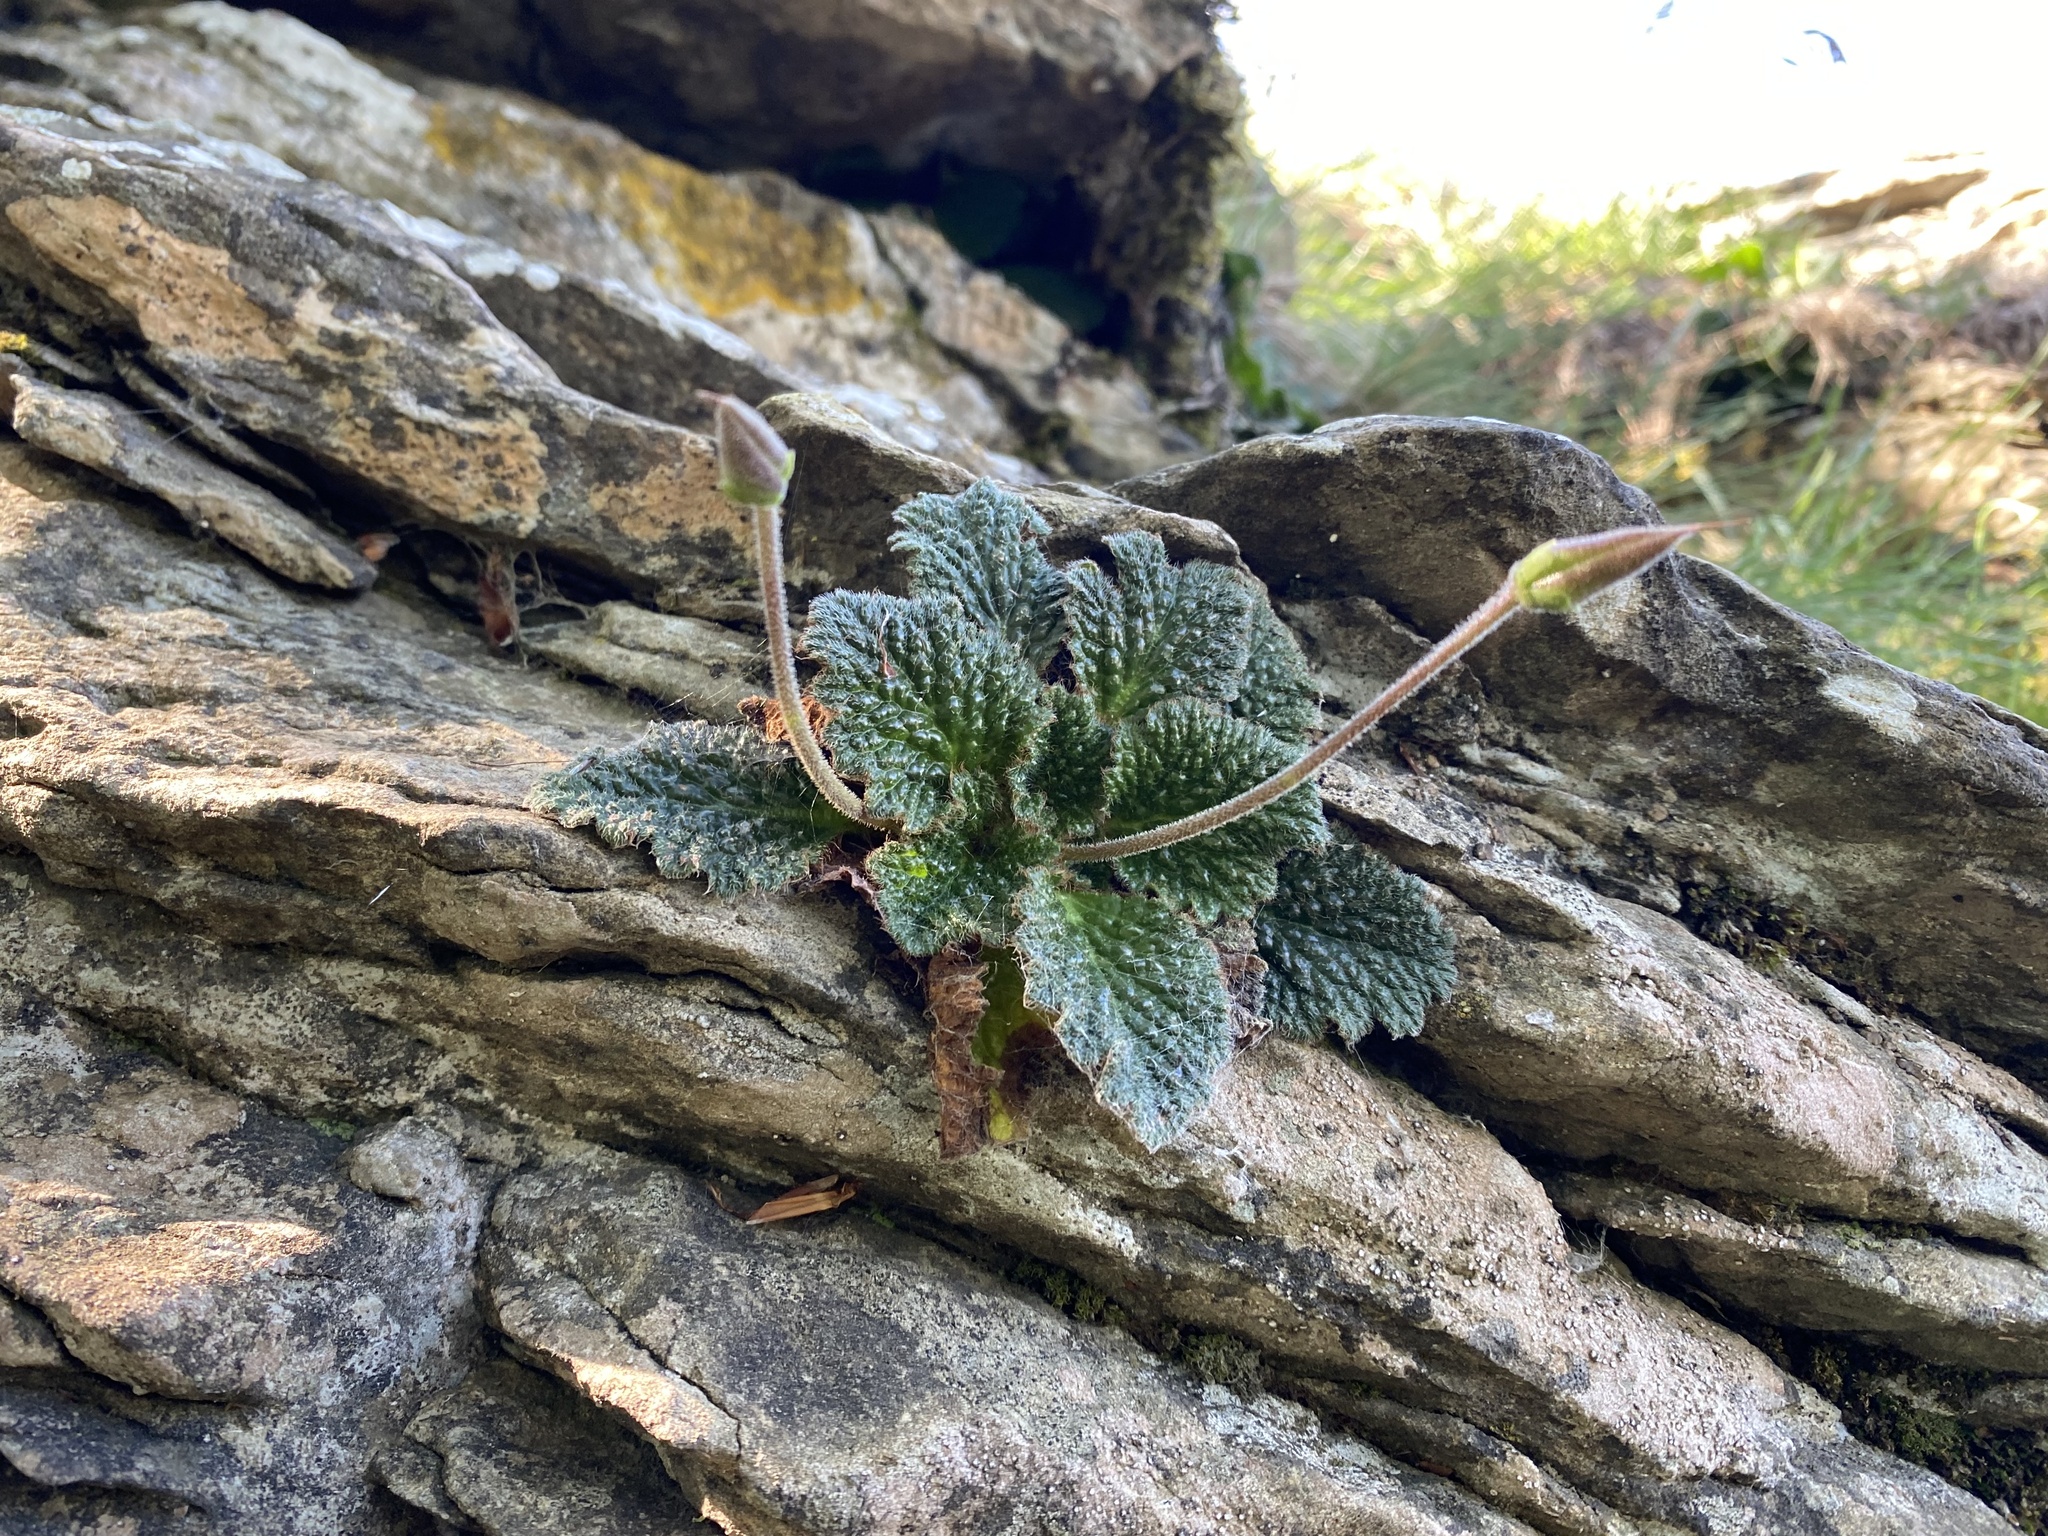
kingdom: Plantae
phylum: Tracheophyta
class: Magnoliopsida
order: Lamiales
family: Gesneriaceae
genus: Ramonda
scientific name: Ramonda myconi
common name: Pyrenean-violet
